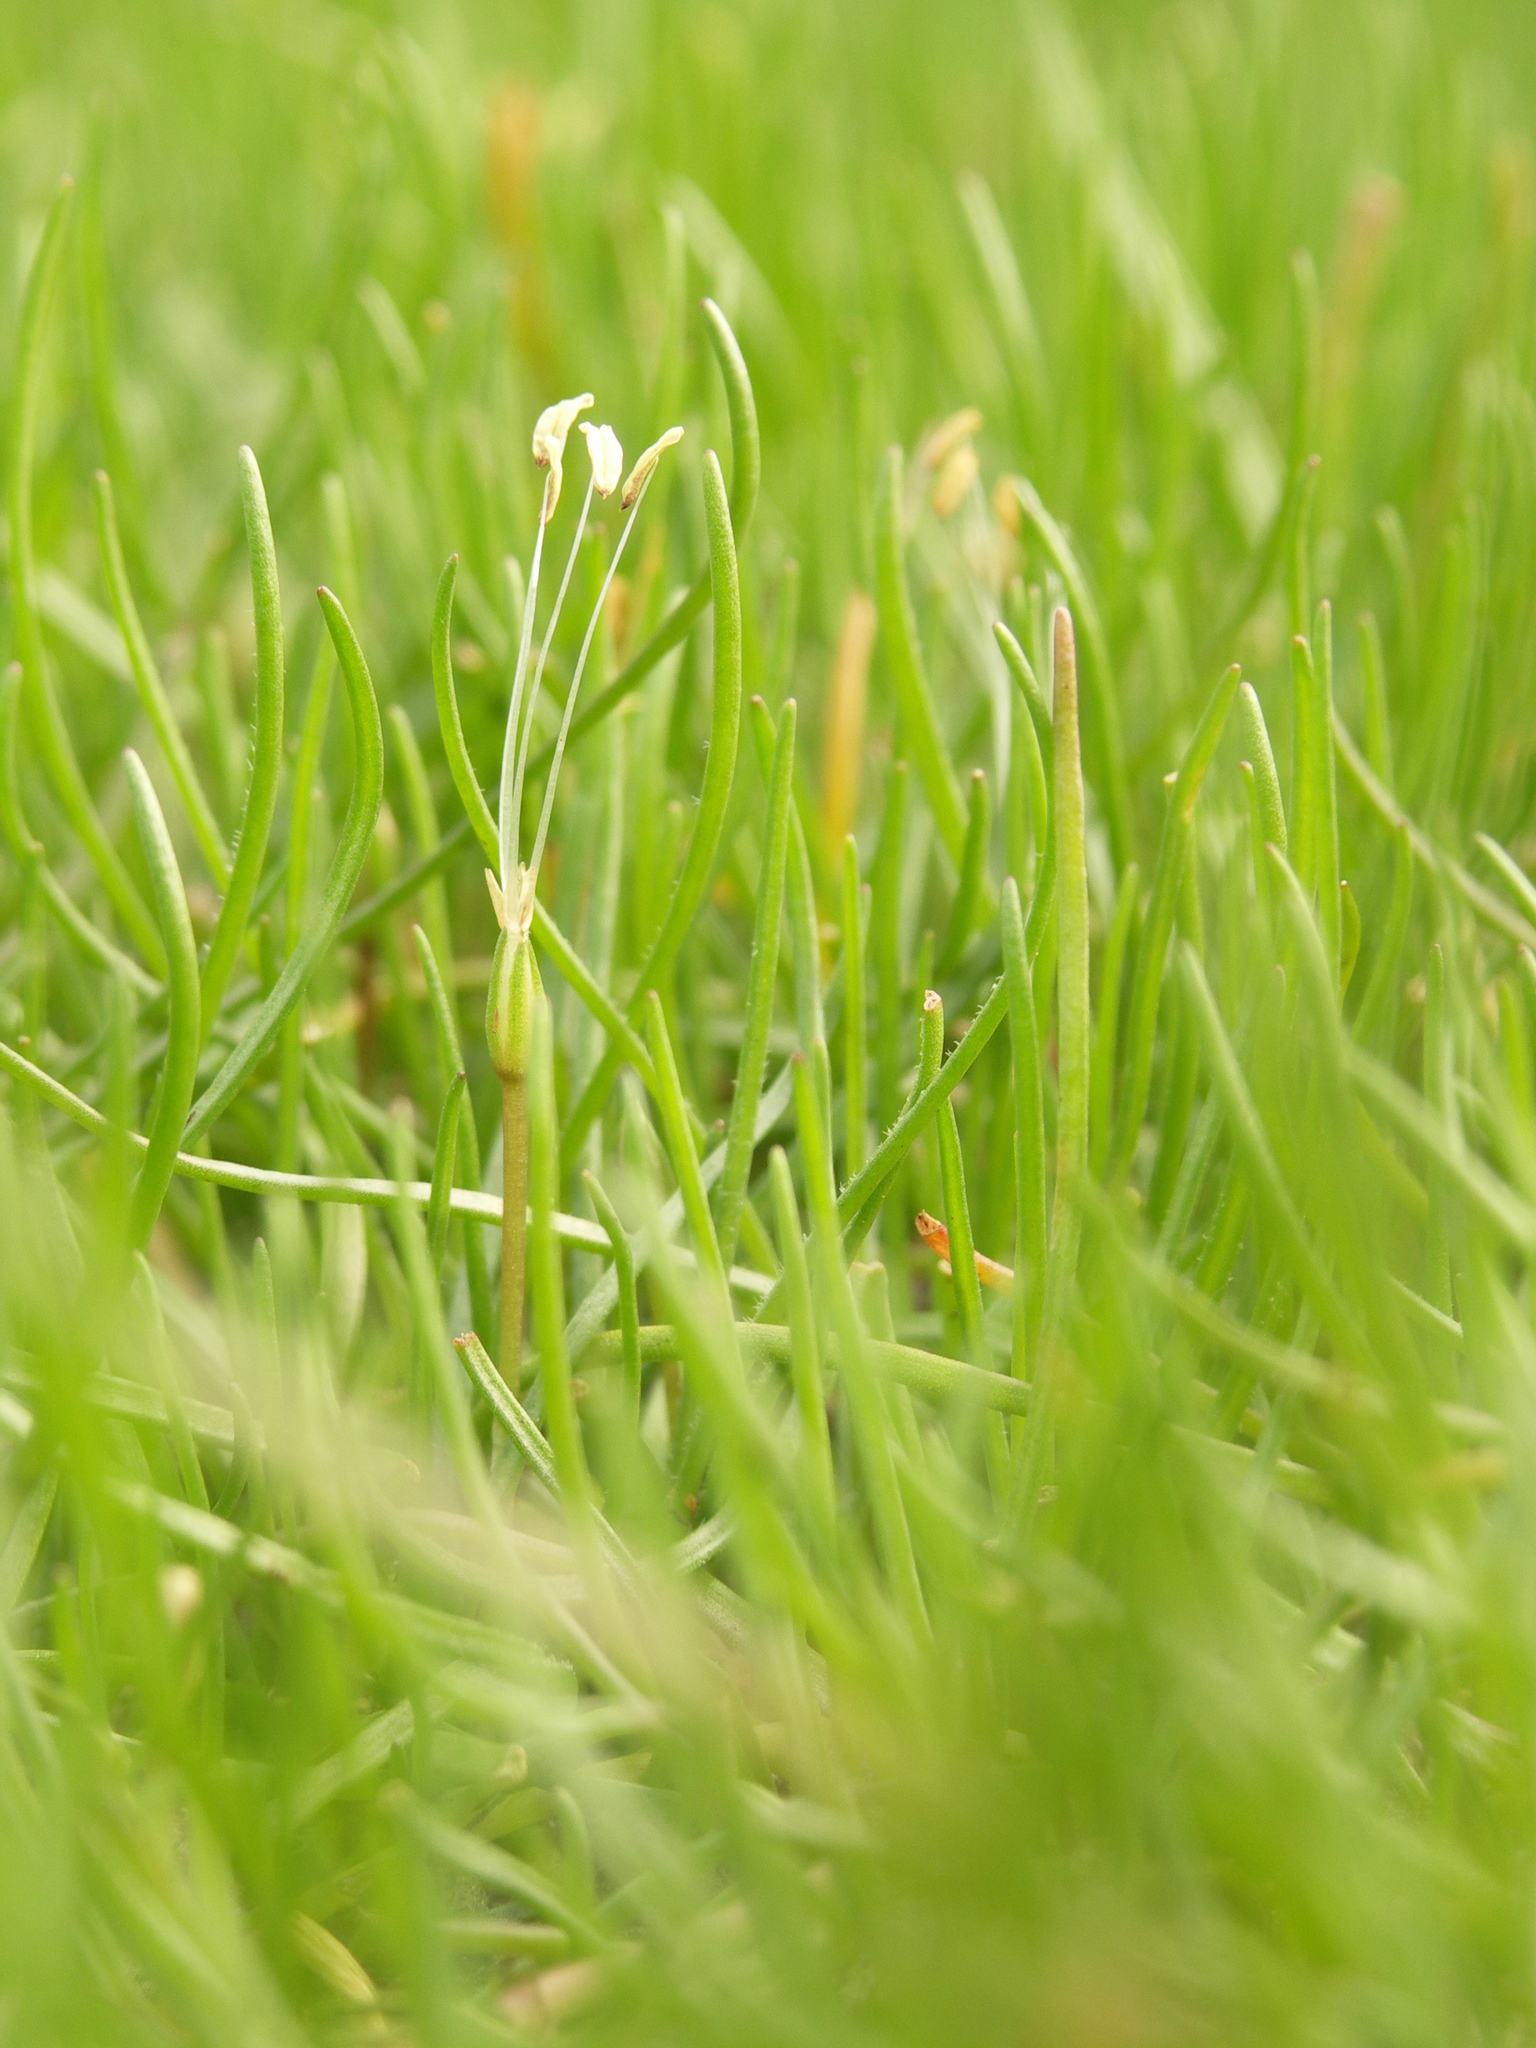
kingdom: Plantae
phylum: Tracheophyta
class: Magnoliopsida
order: Lamiales
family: Plantaginaceae
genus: Littorella
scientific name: Littorella uniflora
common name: Shoreweed
